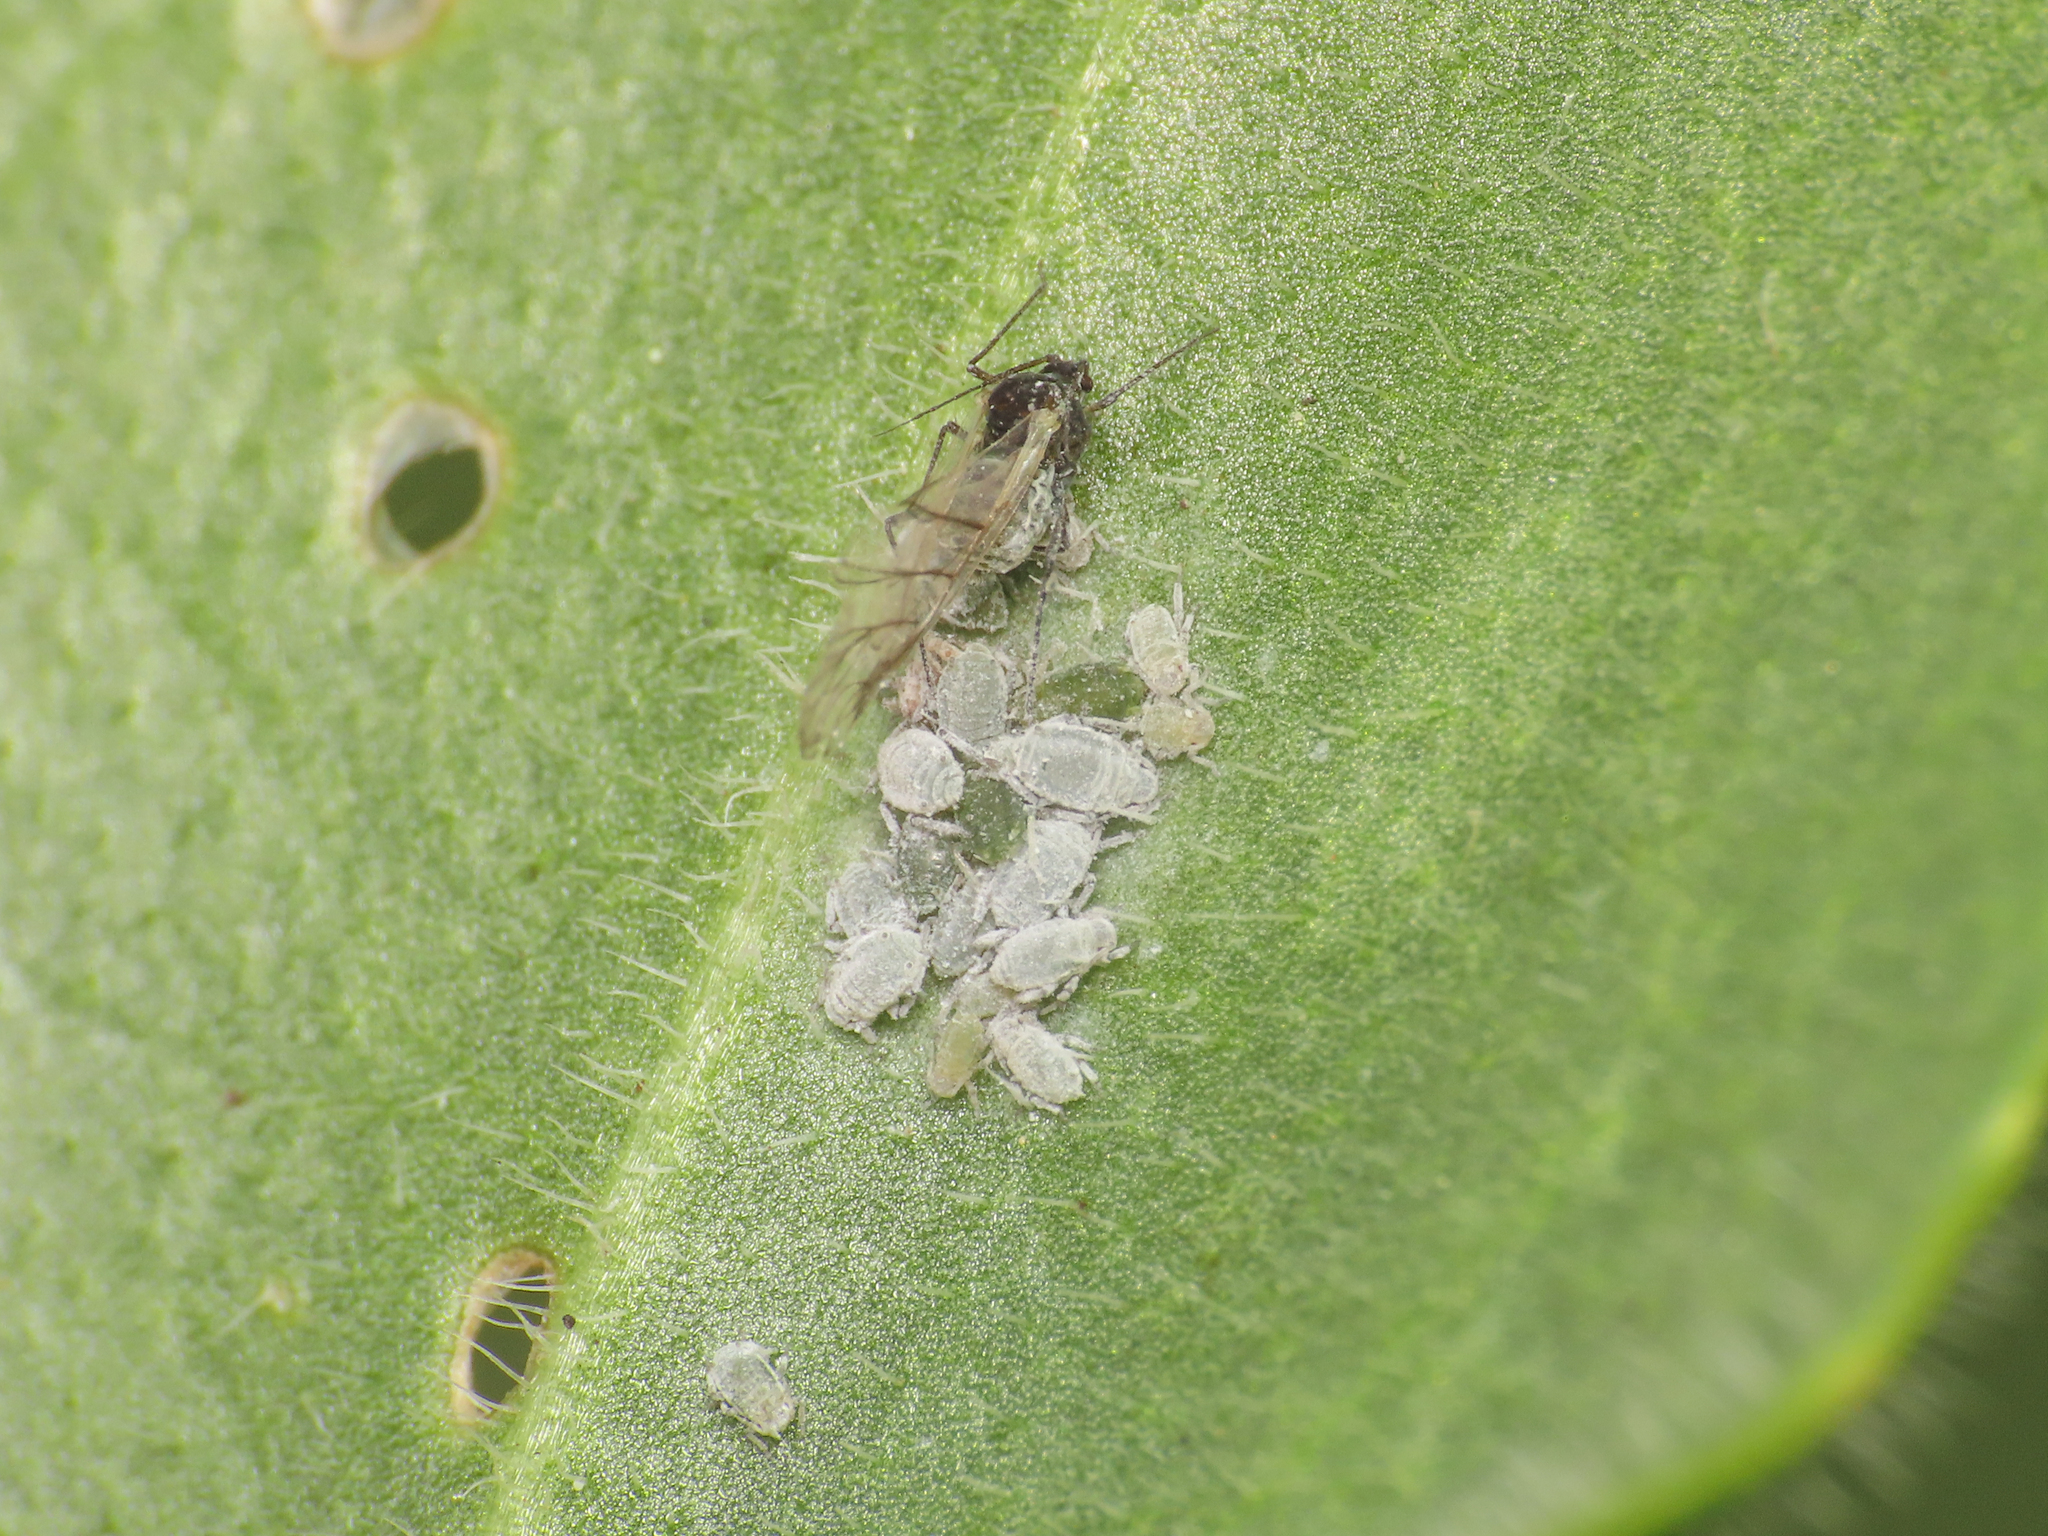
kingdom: Animalia
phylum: Arthropoda
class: Insecta
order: Hemiptera
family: Aphididae
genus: Brevicoryne
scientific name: Brevicoryne brassicae
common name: Cabbage aphid
